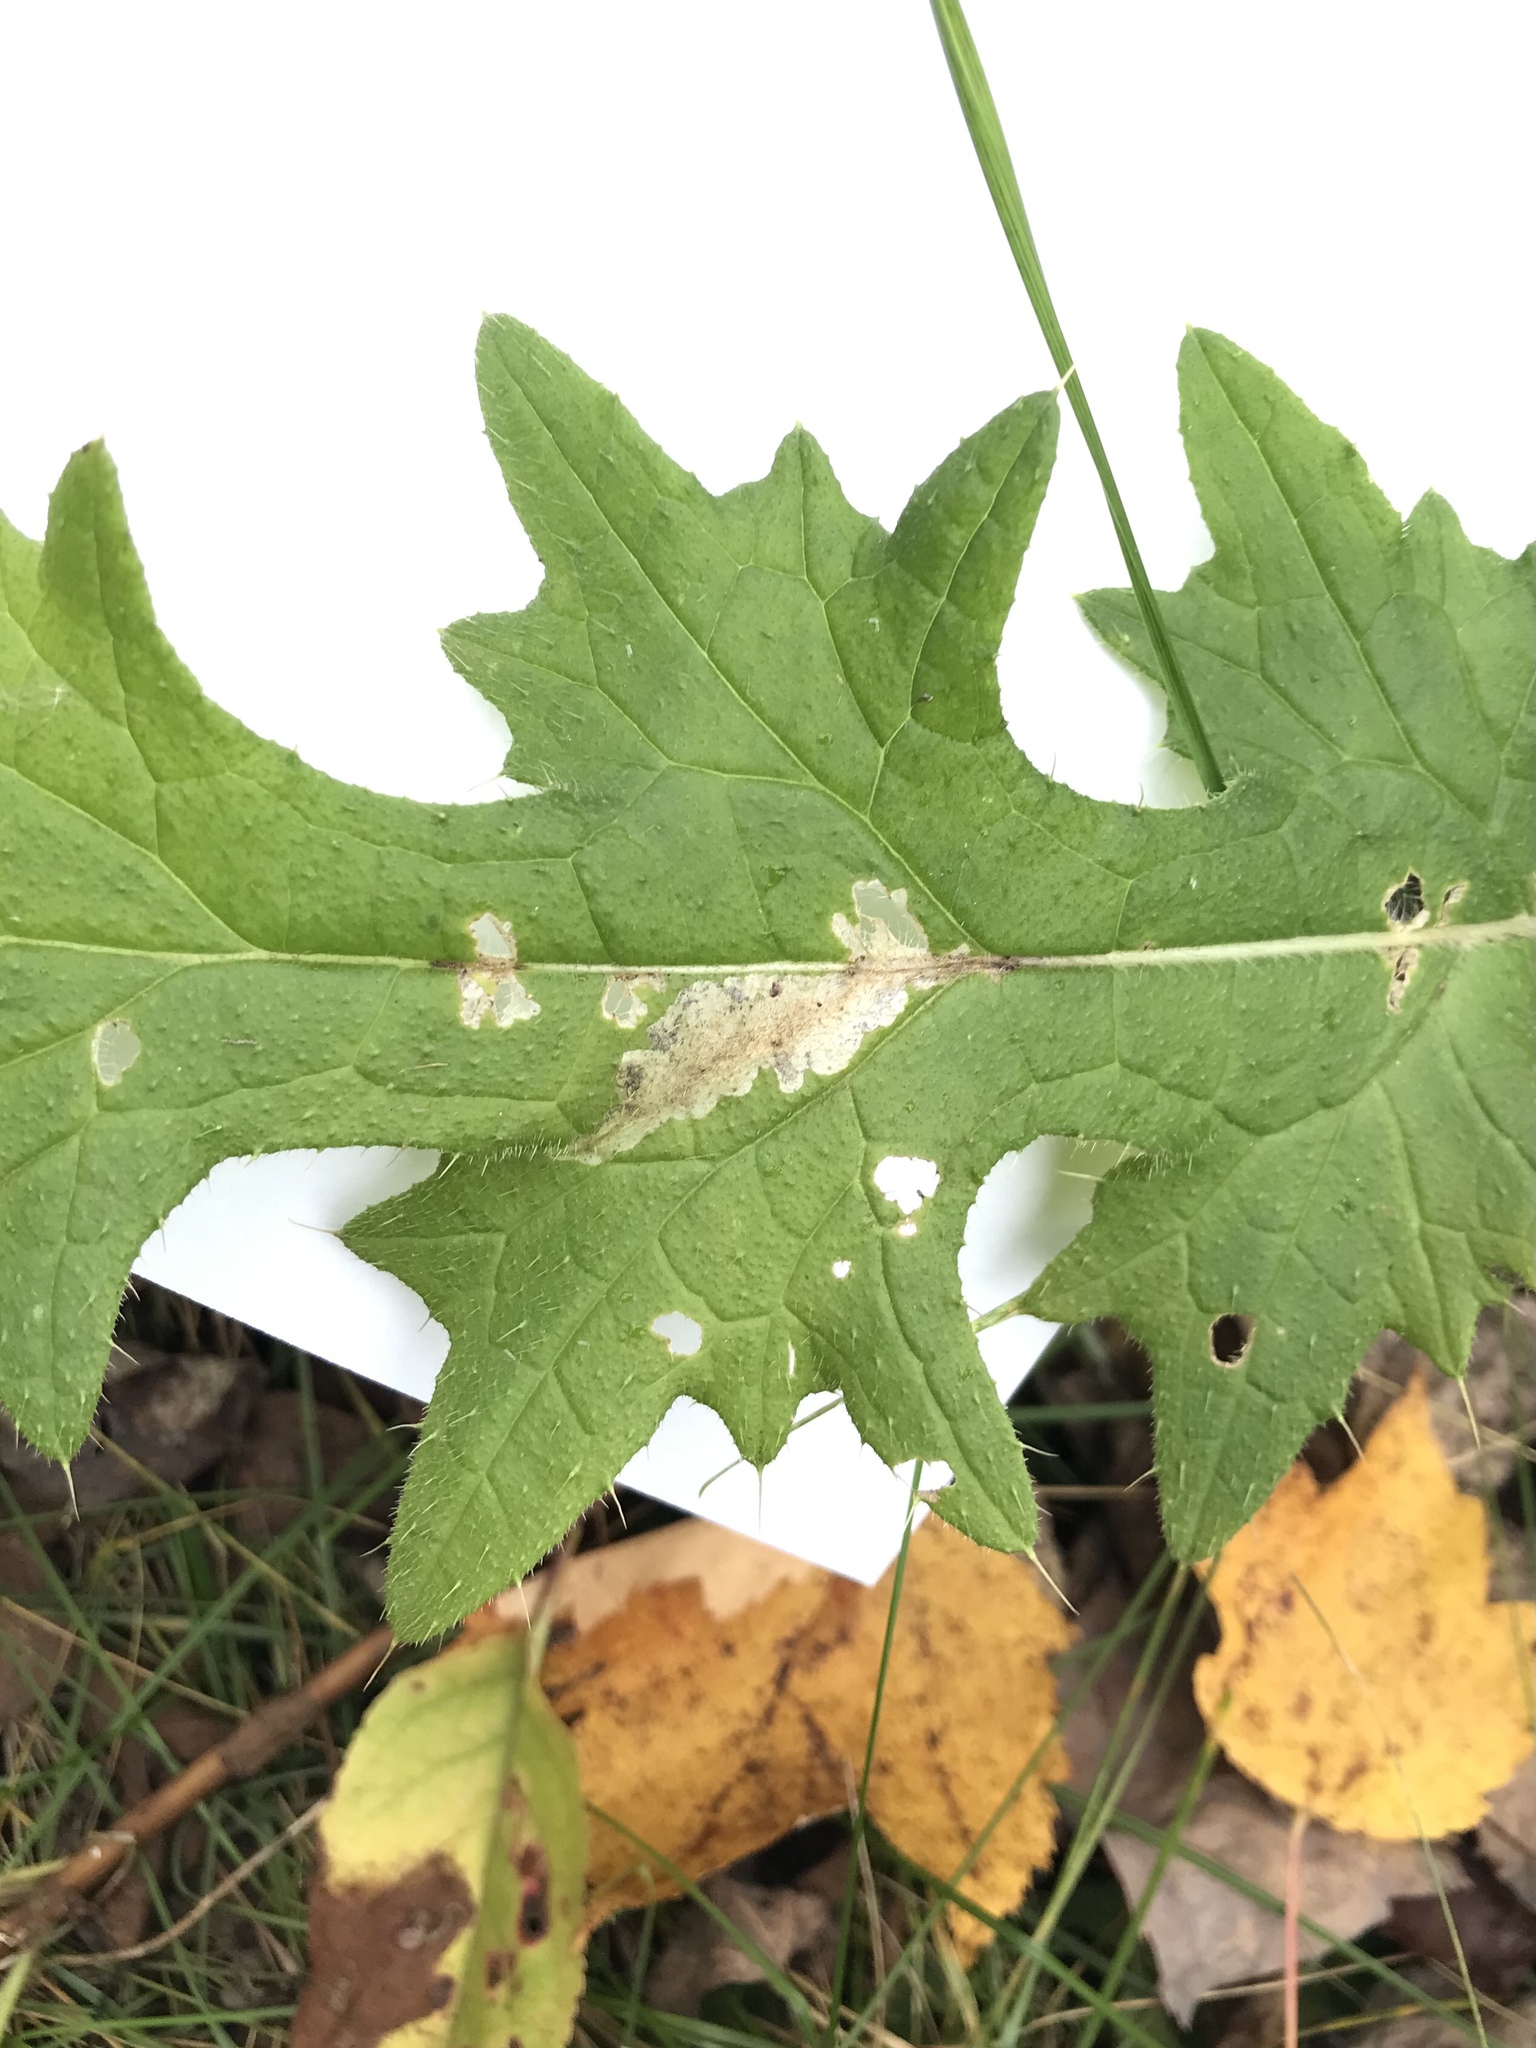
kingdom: Animalia
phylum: Arthropoda
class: Insecta
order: Lepidoptera
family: Gelechiidae
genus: Scrobipalpa
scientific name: Scrobipalpa acuminatella
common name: Pointed groundling
